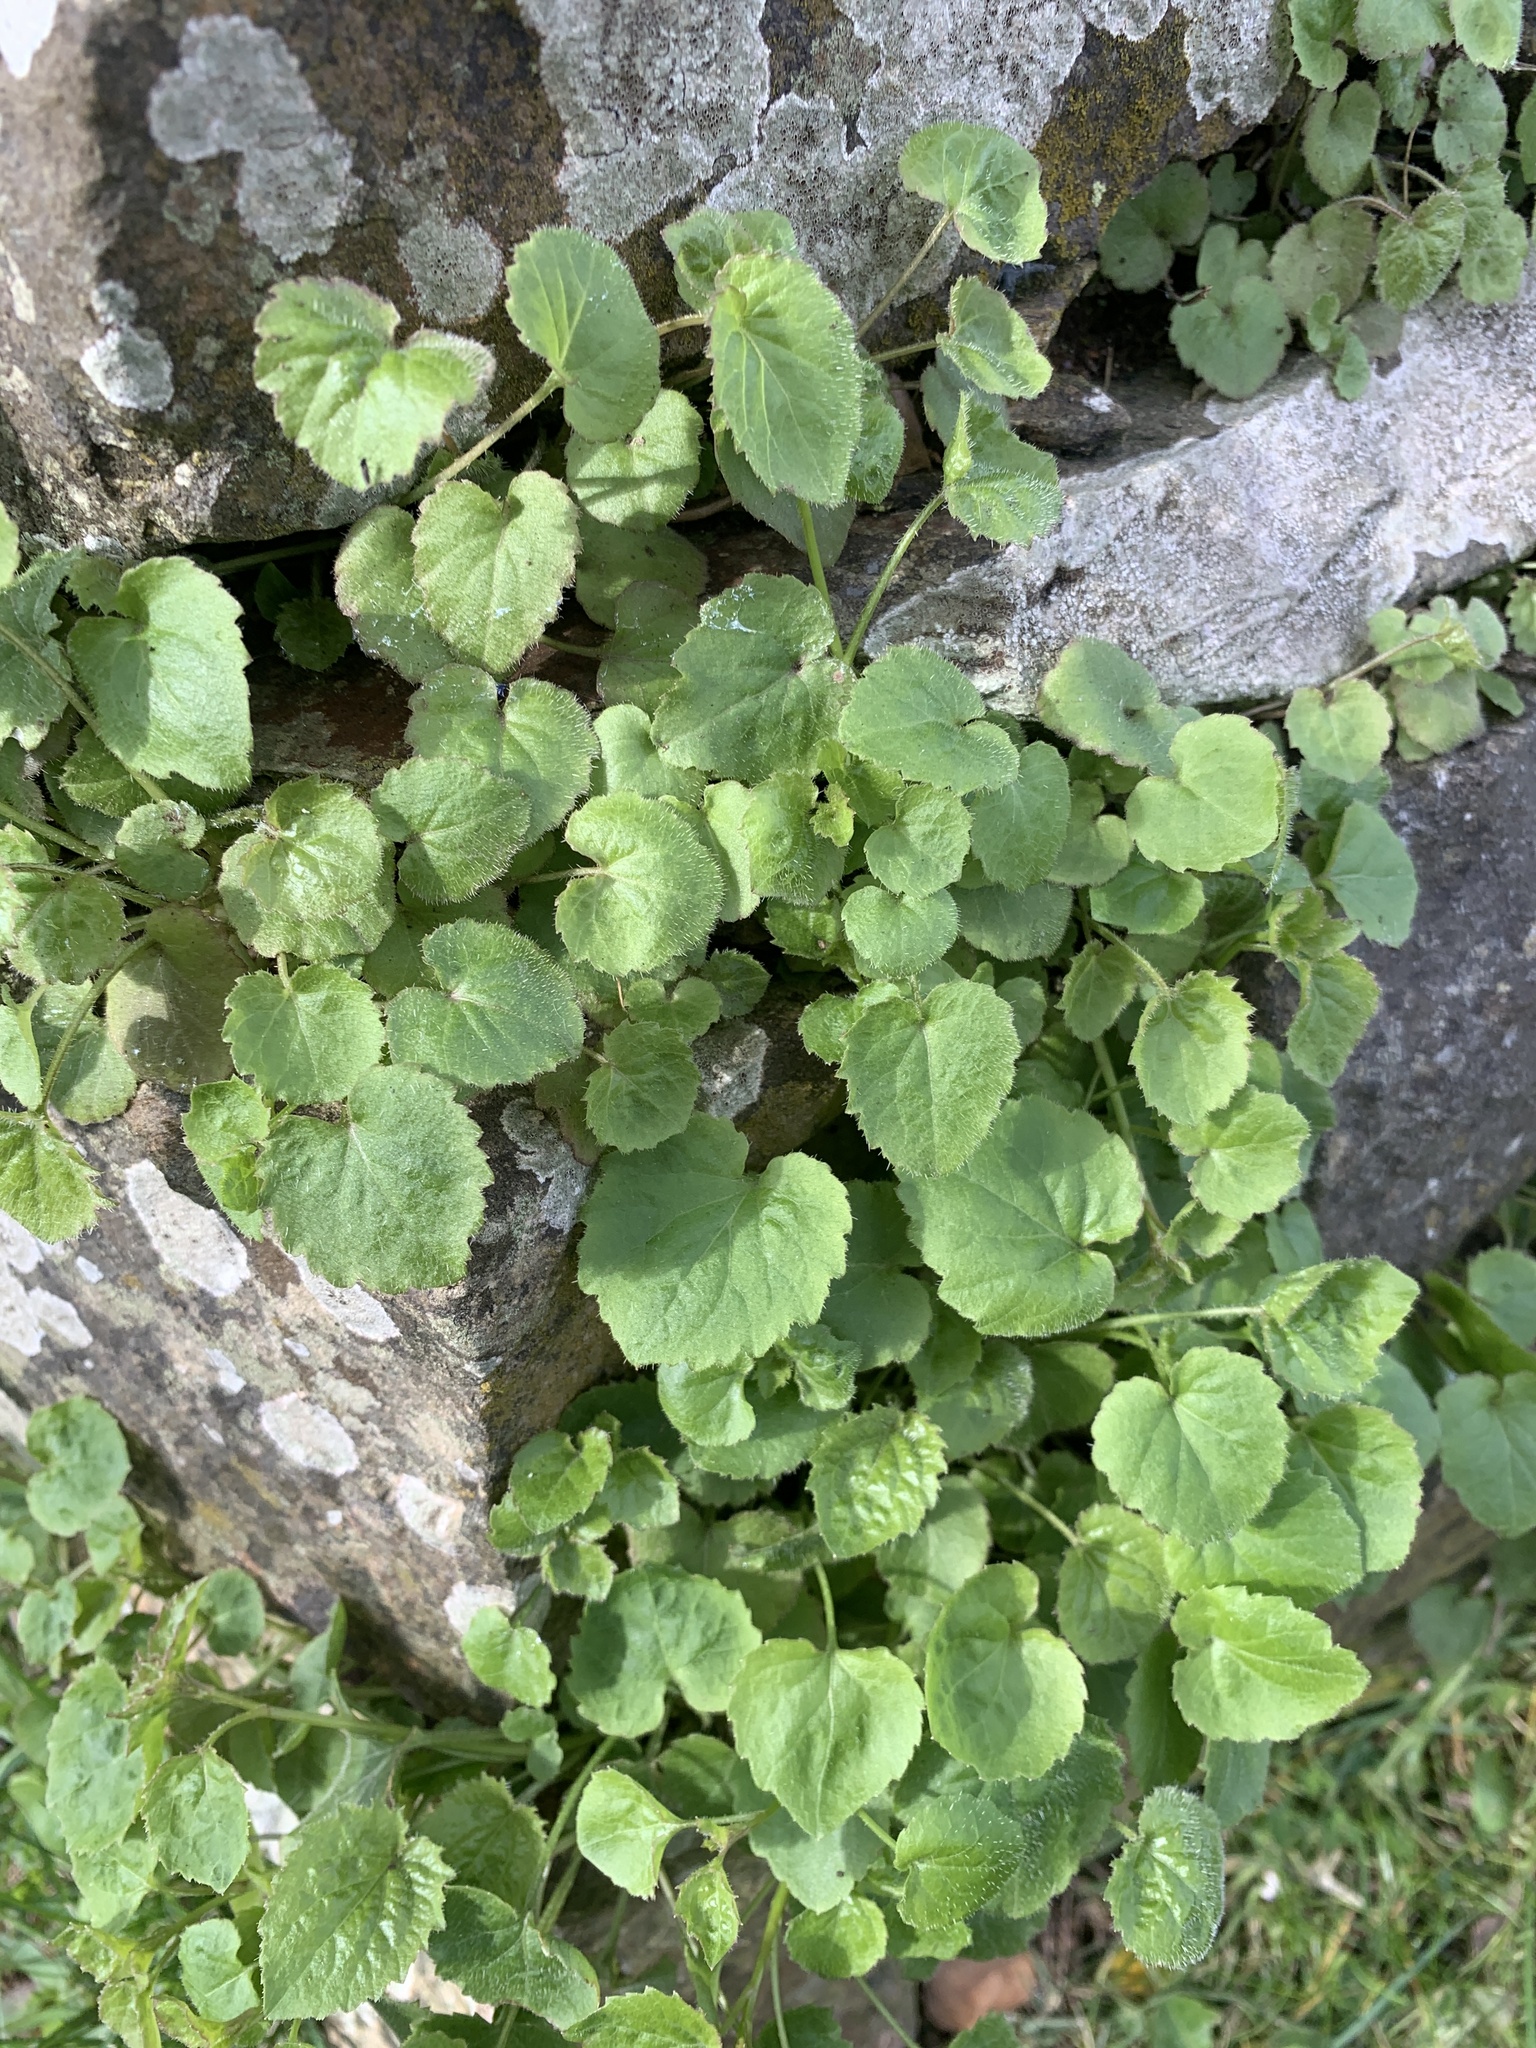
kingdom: Plantae
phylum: Tracheophyta
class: Magnoliopsida
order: Asterales
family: Campanulaceae
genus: Campanula
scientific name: Campanula poscharskyana
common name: Trailing bellflower
